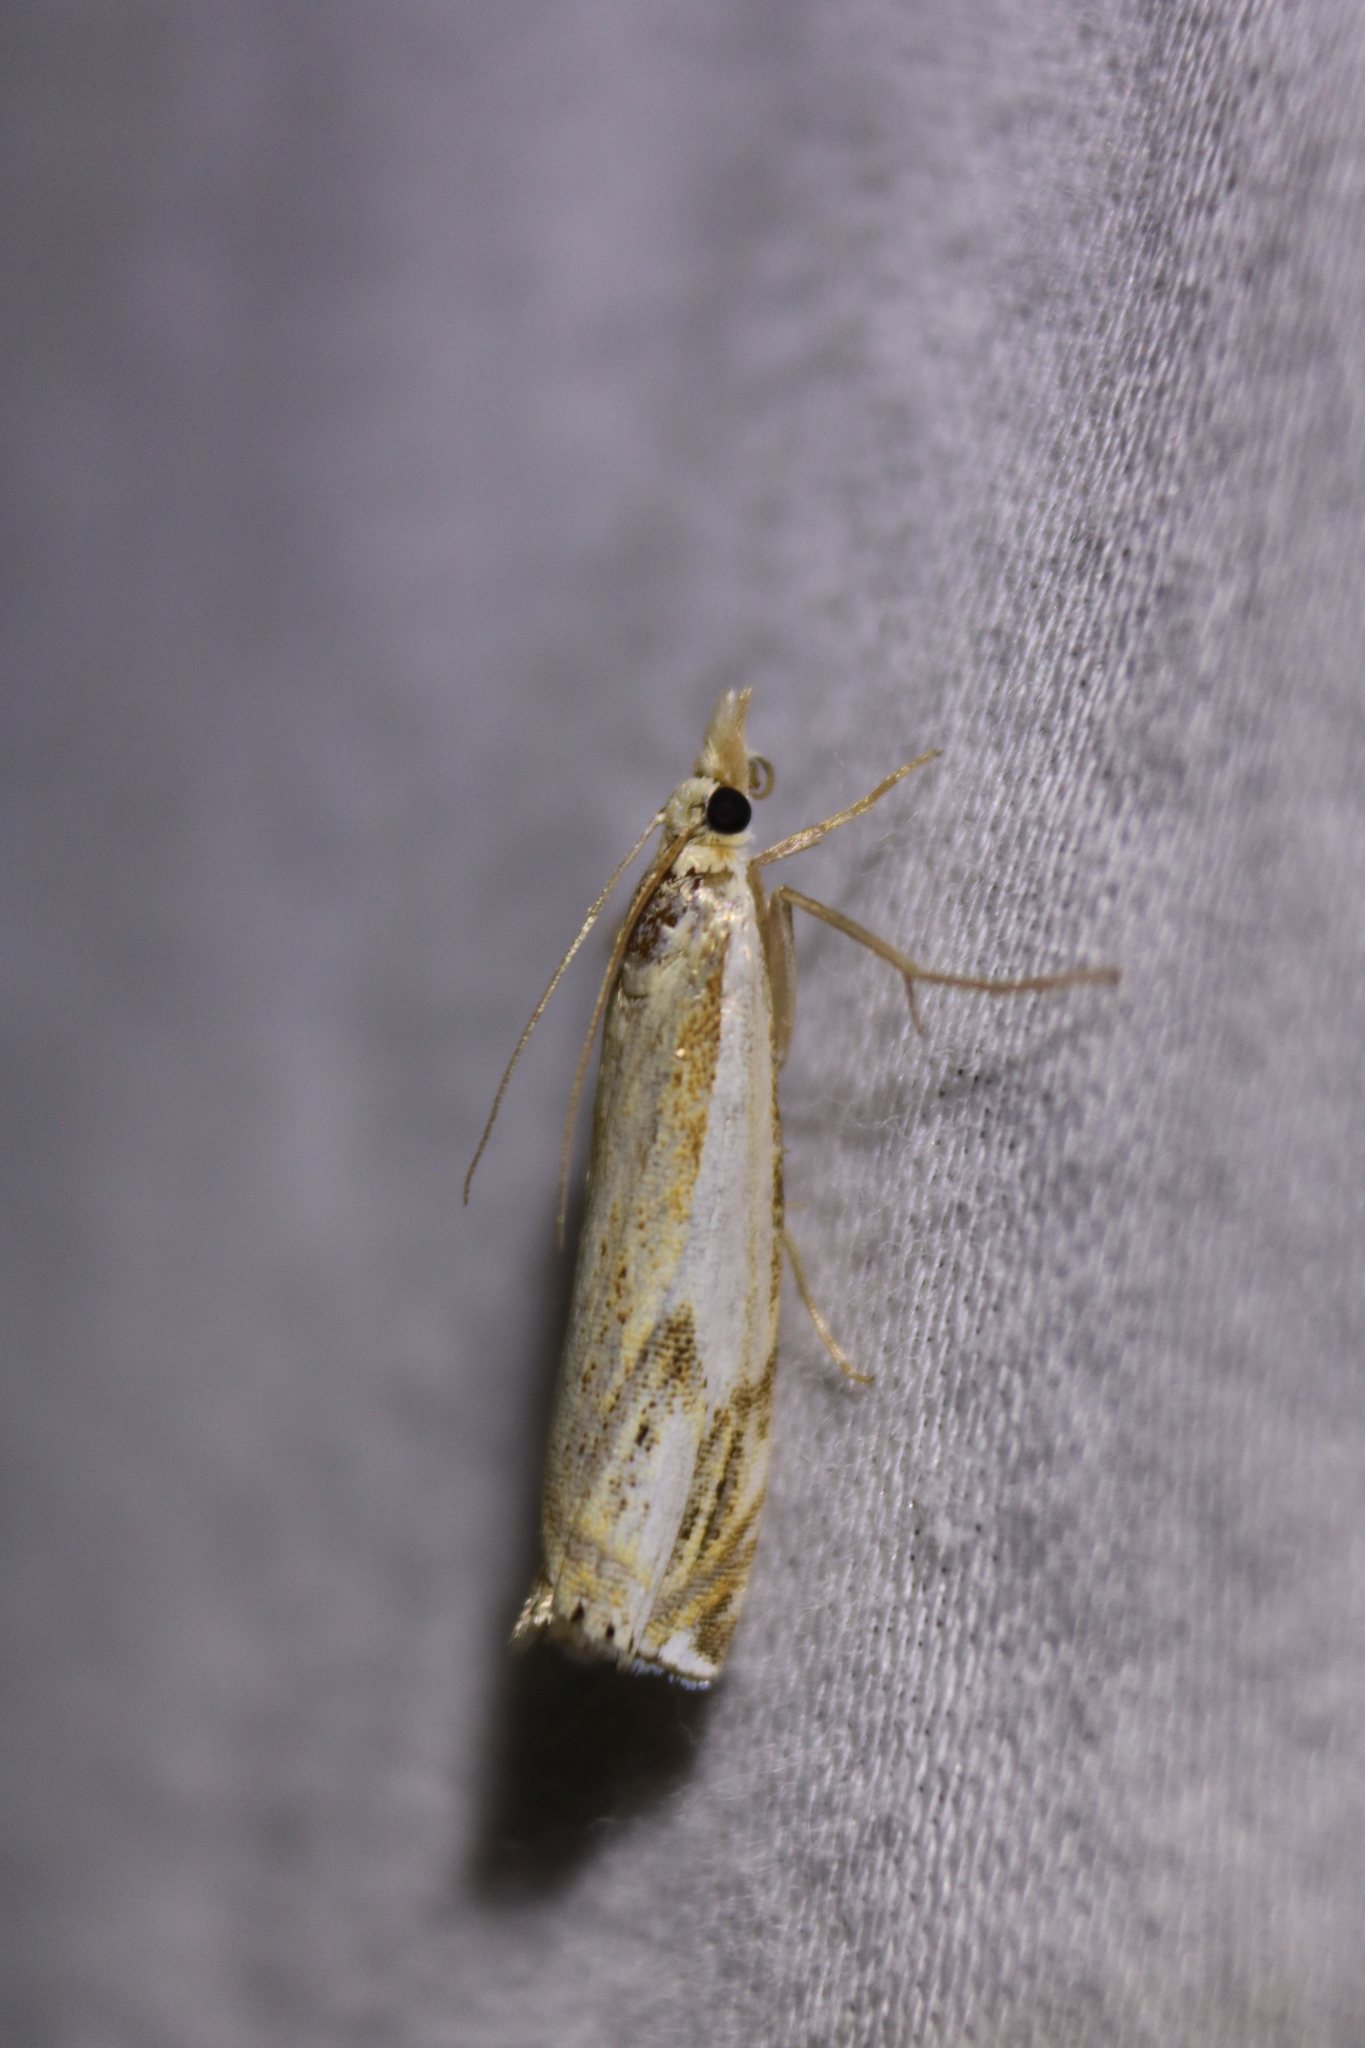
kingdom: Animalia
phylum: Arthropoda
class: Insecta
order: Lepidoptera
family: Crambidae
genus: Crambus
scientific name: Crambus agitatellus
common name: Double-banded grass-veneer
